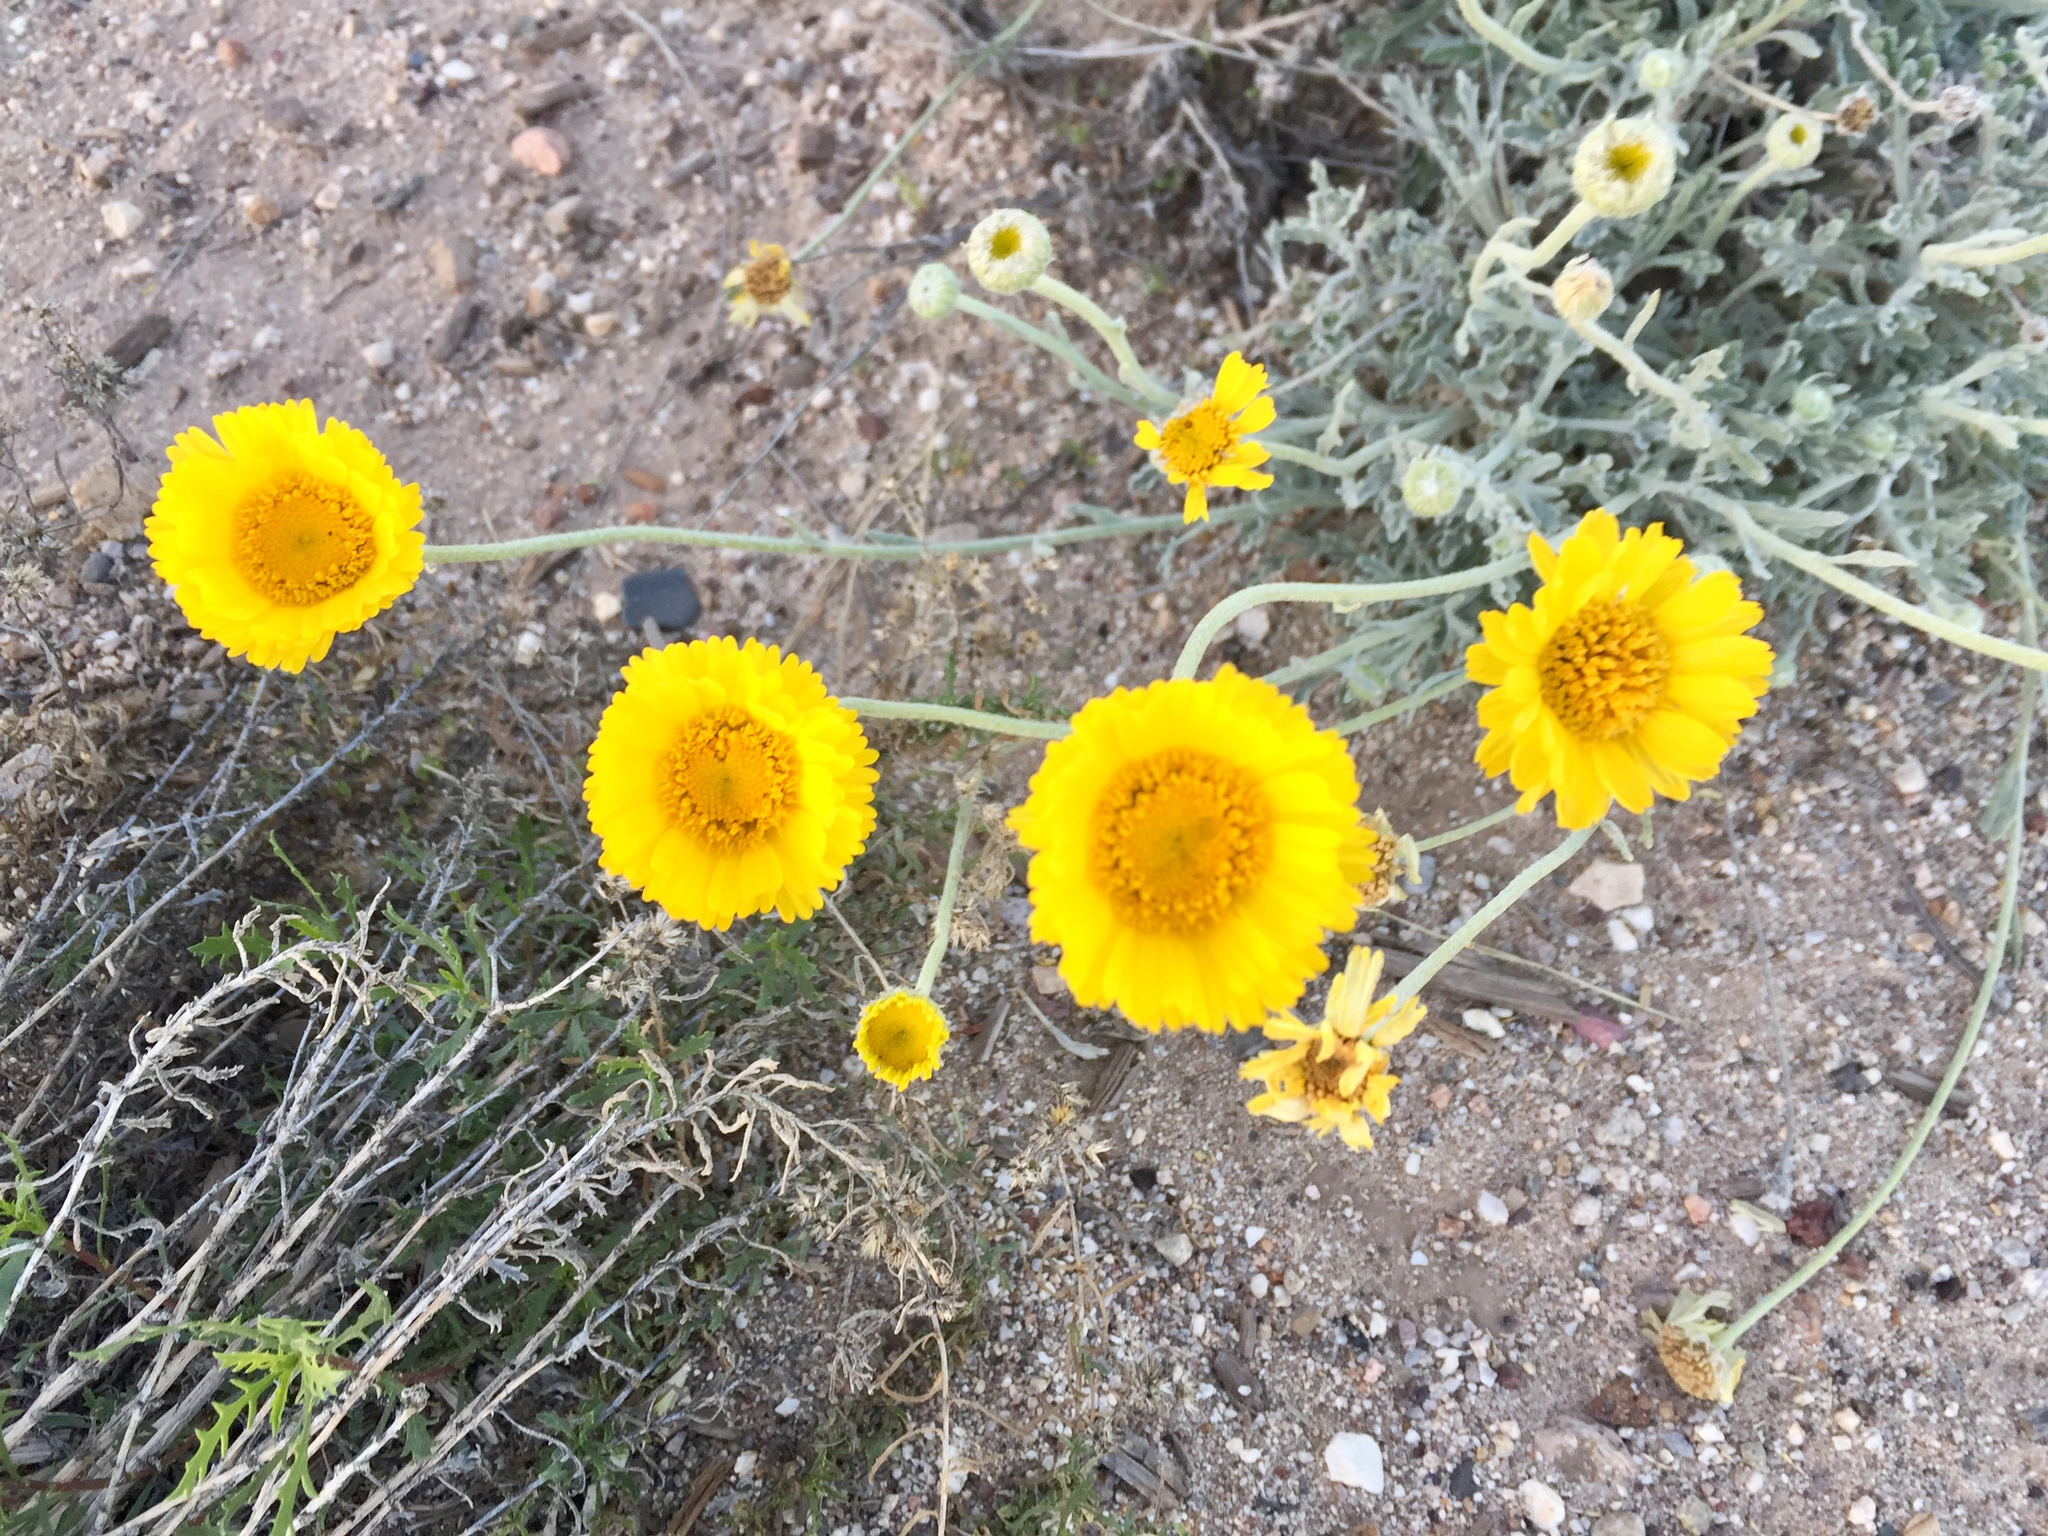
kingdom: Plantae
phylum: Tracheophyta
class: Magnoliopsida
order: Asterales
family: Asteraceae
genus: Baileya
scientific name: Baileya multiradiata
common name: Desert-marigold
